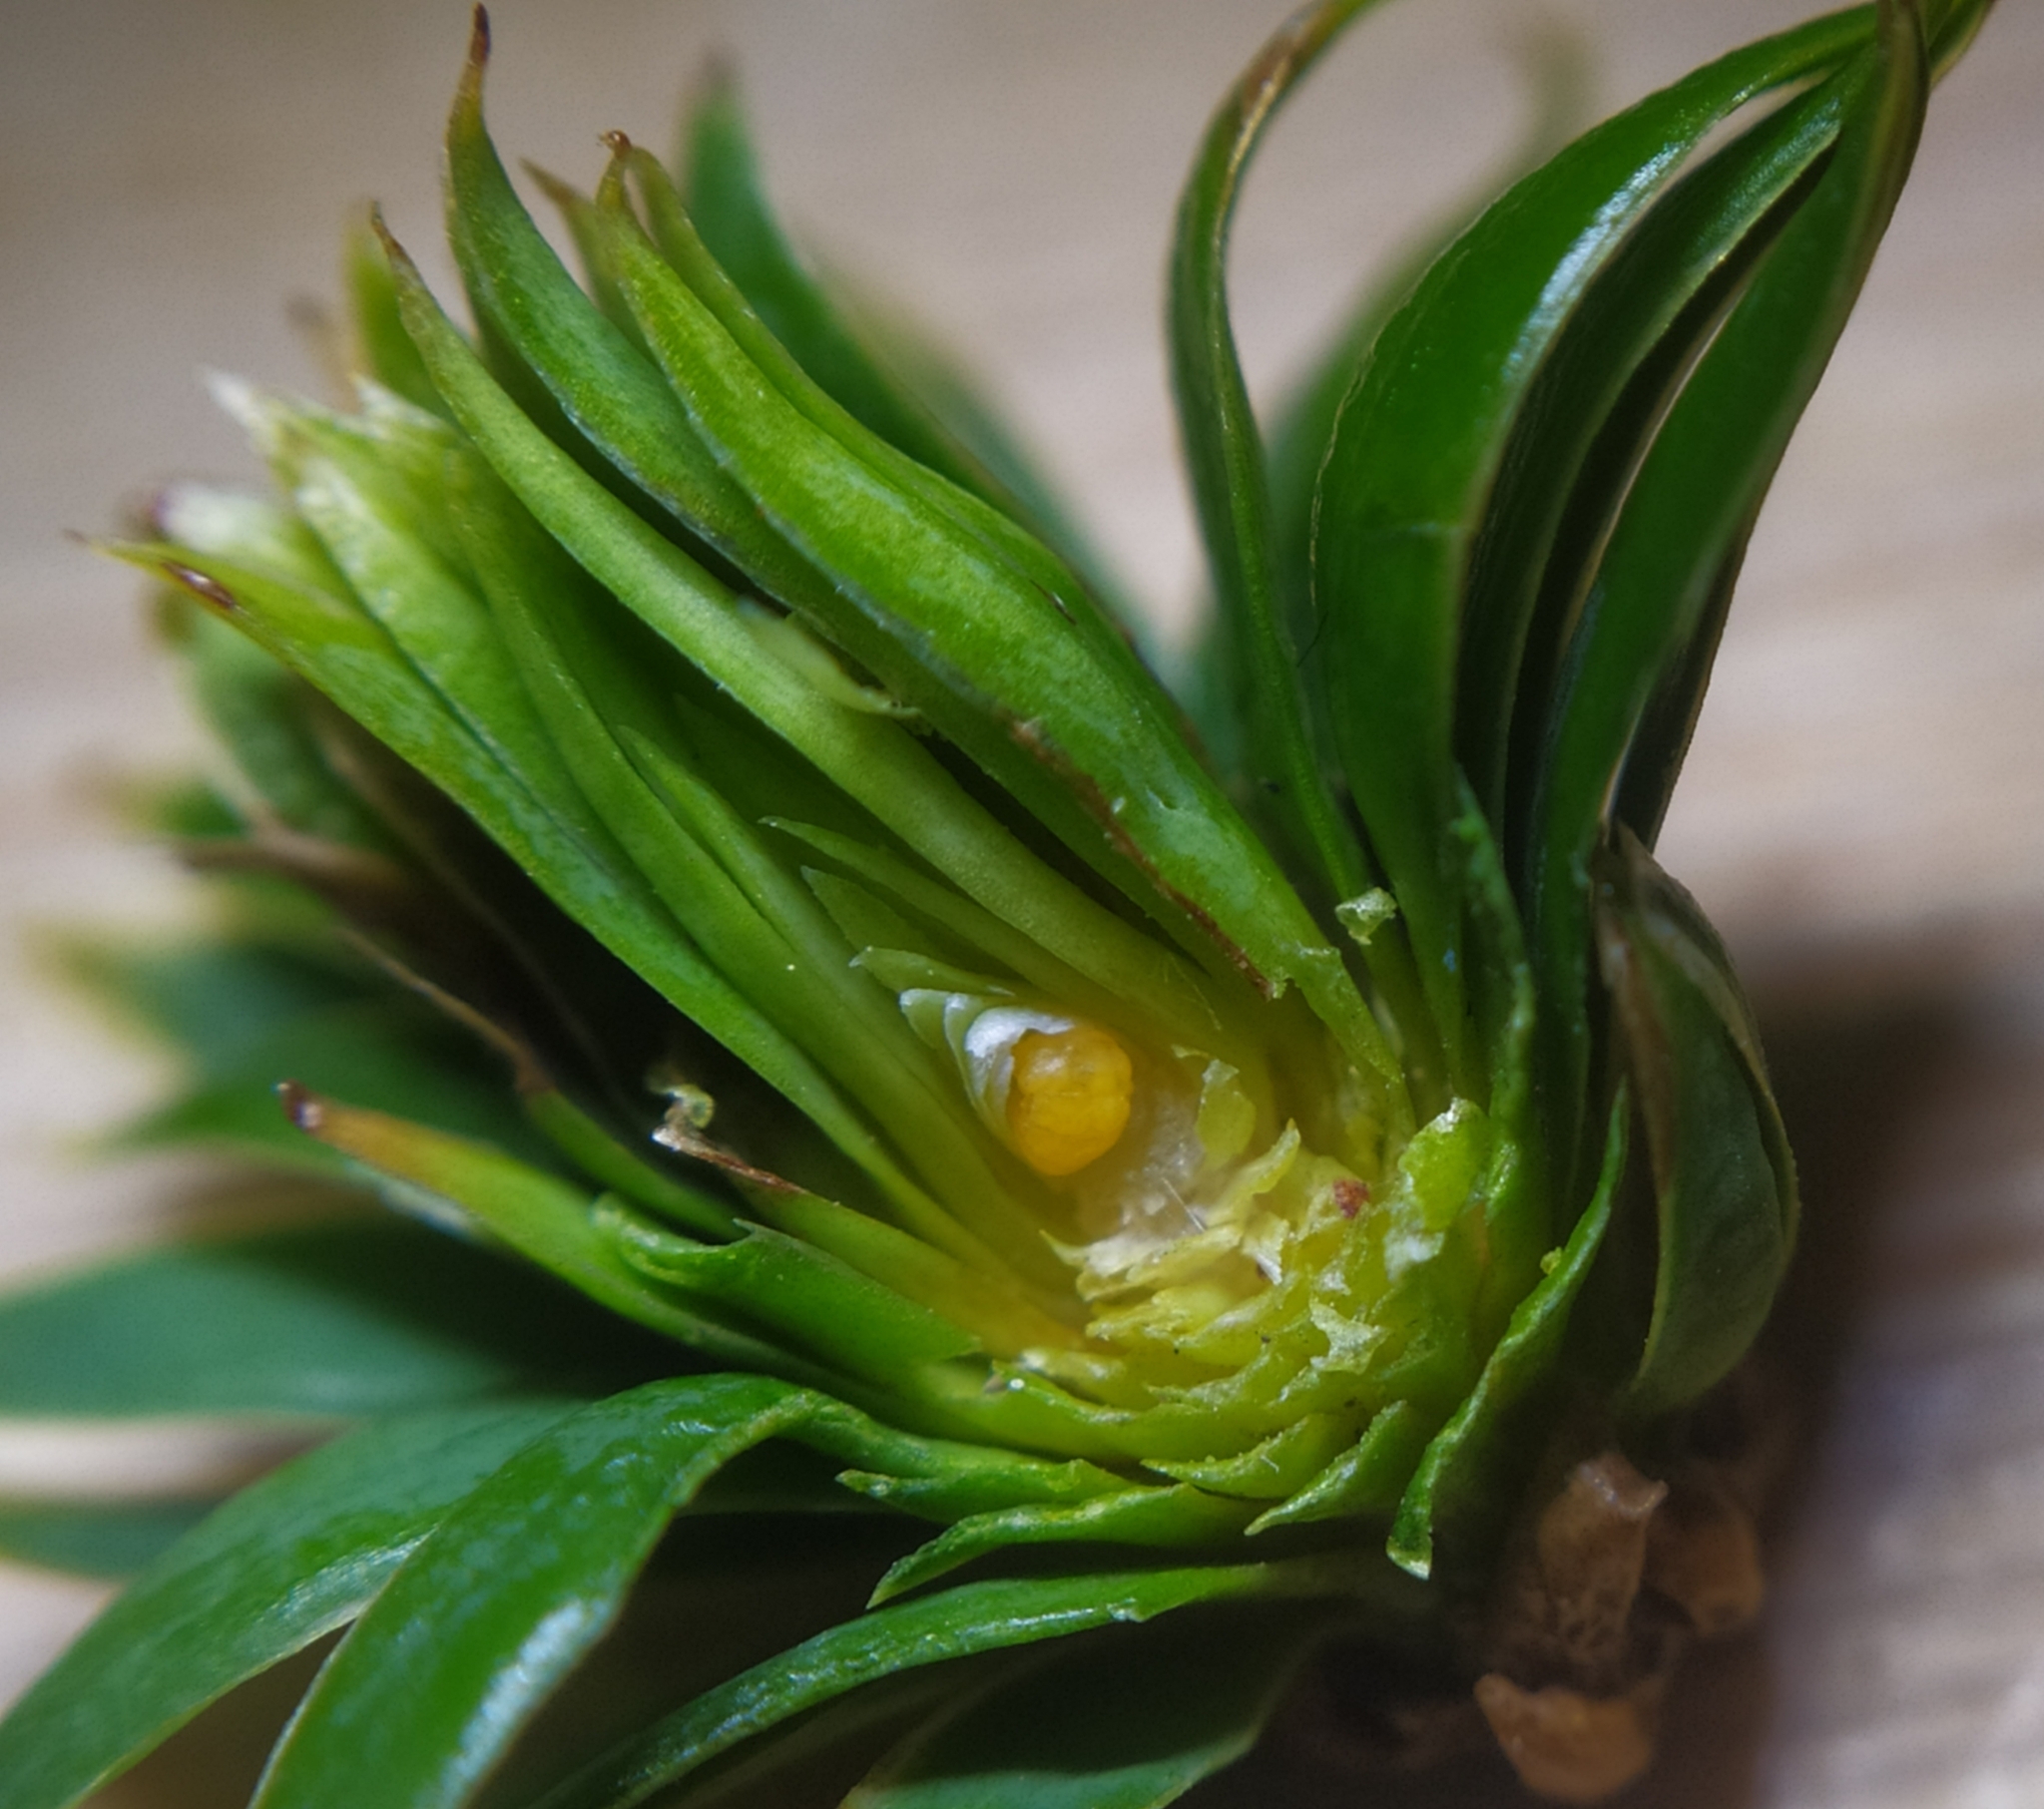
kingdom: Animalia
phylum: Arthropoda
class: Insecta
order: Diptera
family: Cecidomyiidae
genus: Taxomyia
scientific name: Taxomyia taxi
